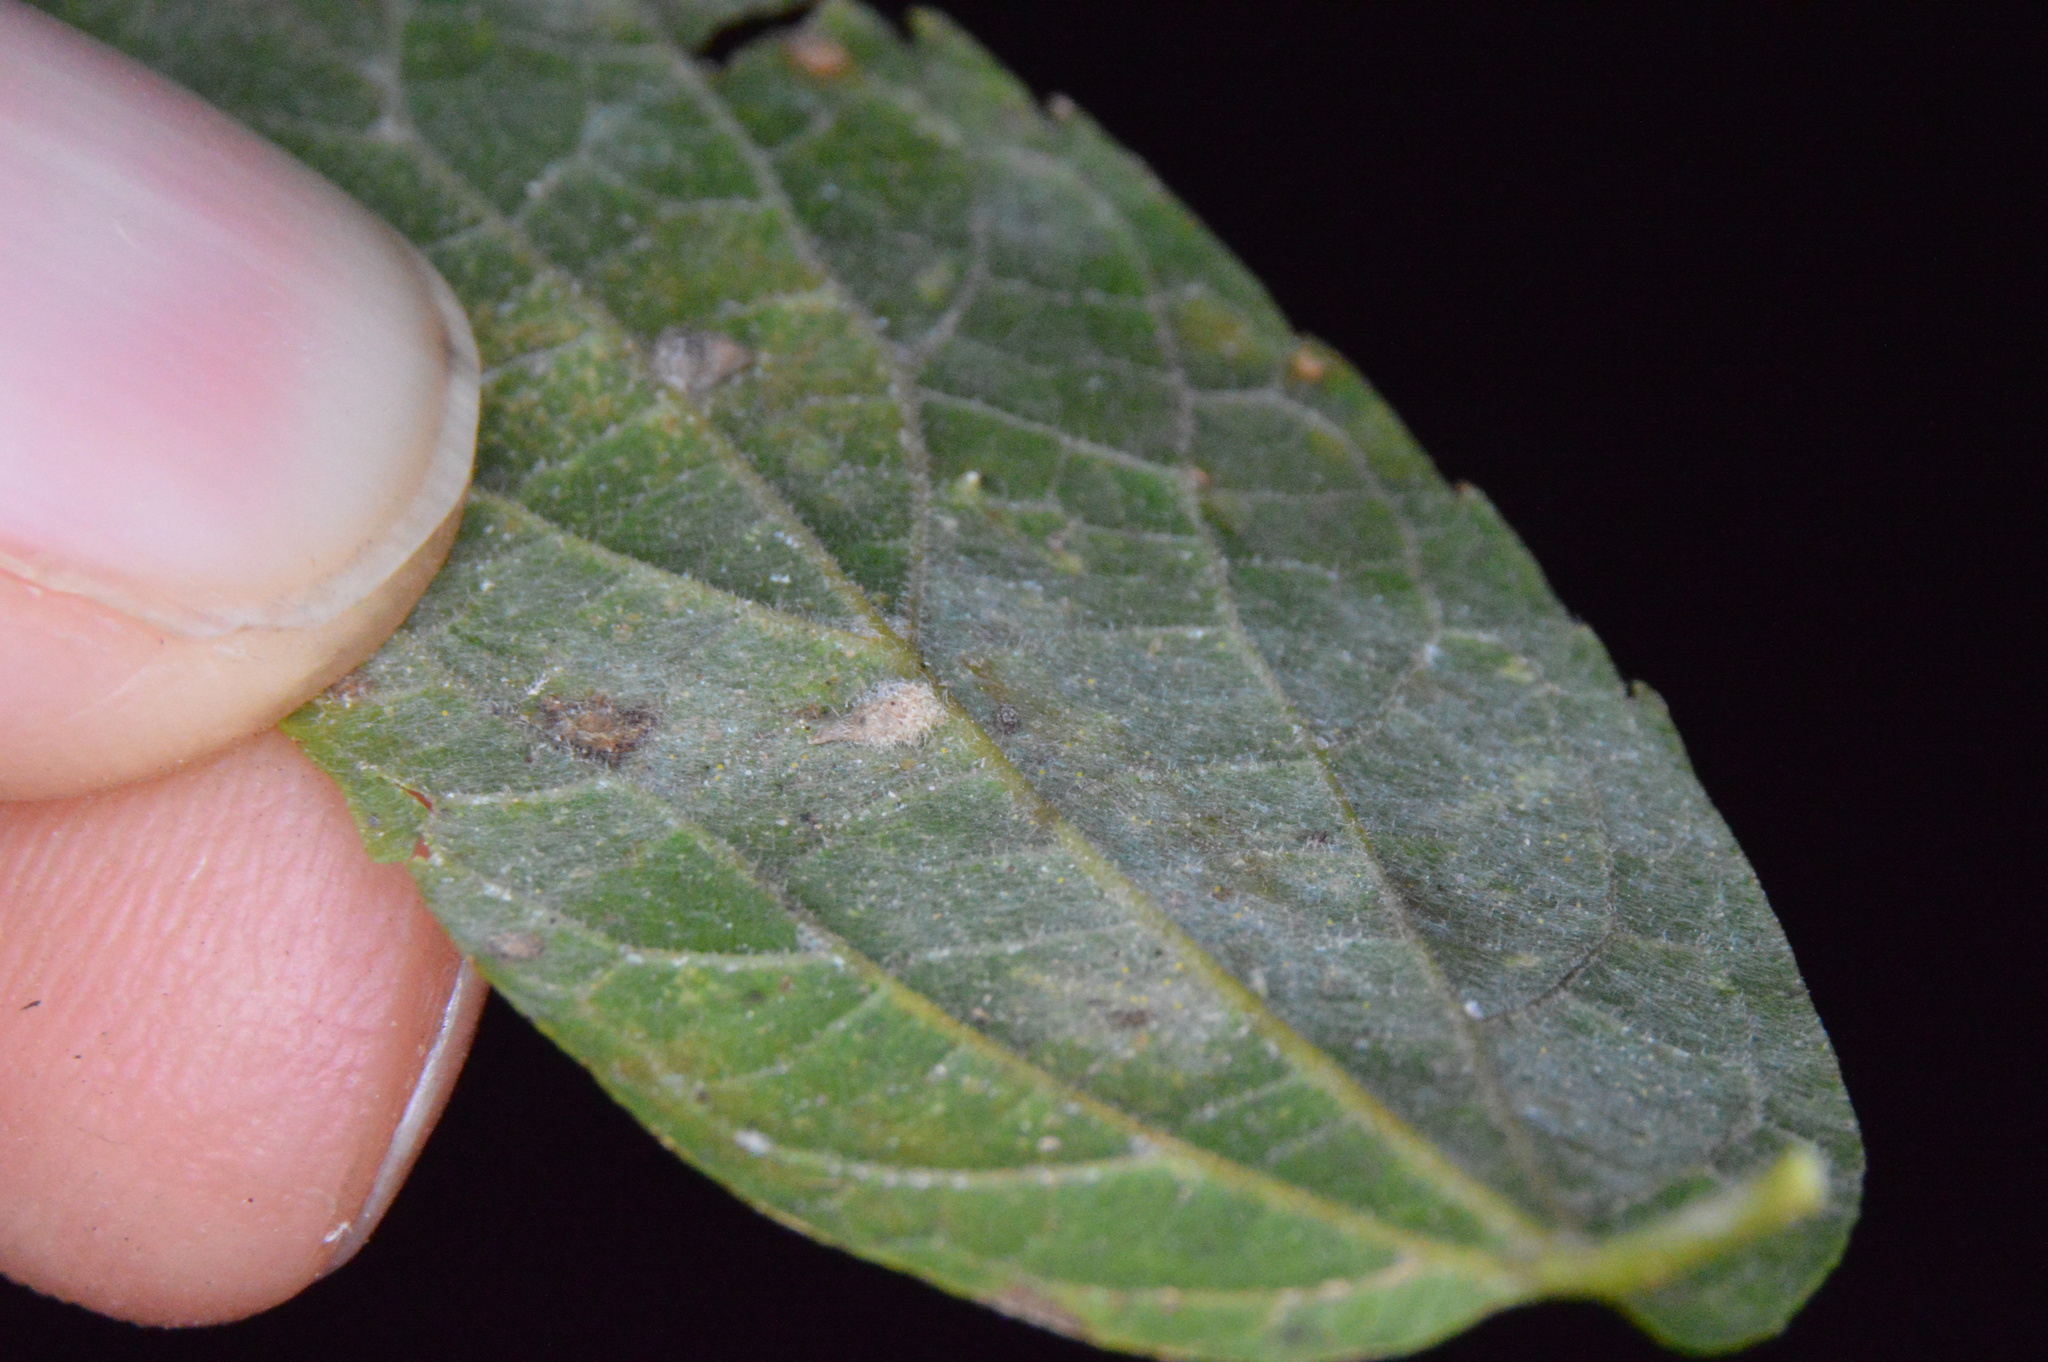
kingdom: Animalia
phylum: Arthropoda
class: Insecta
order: Diptera
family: Cecidomyiidae
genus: Celticecis
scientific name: Celticecis supina
